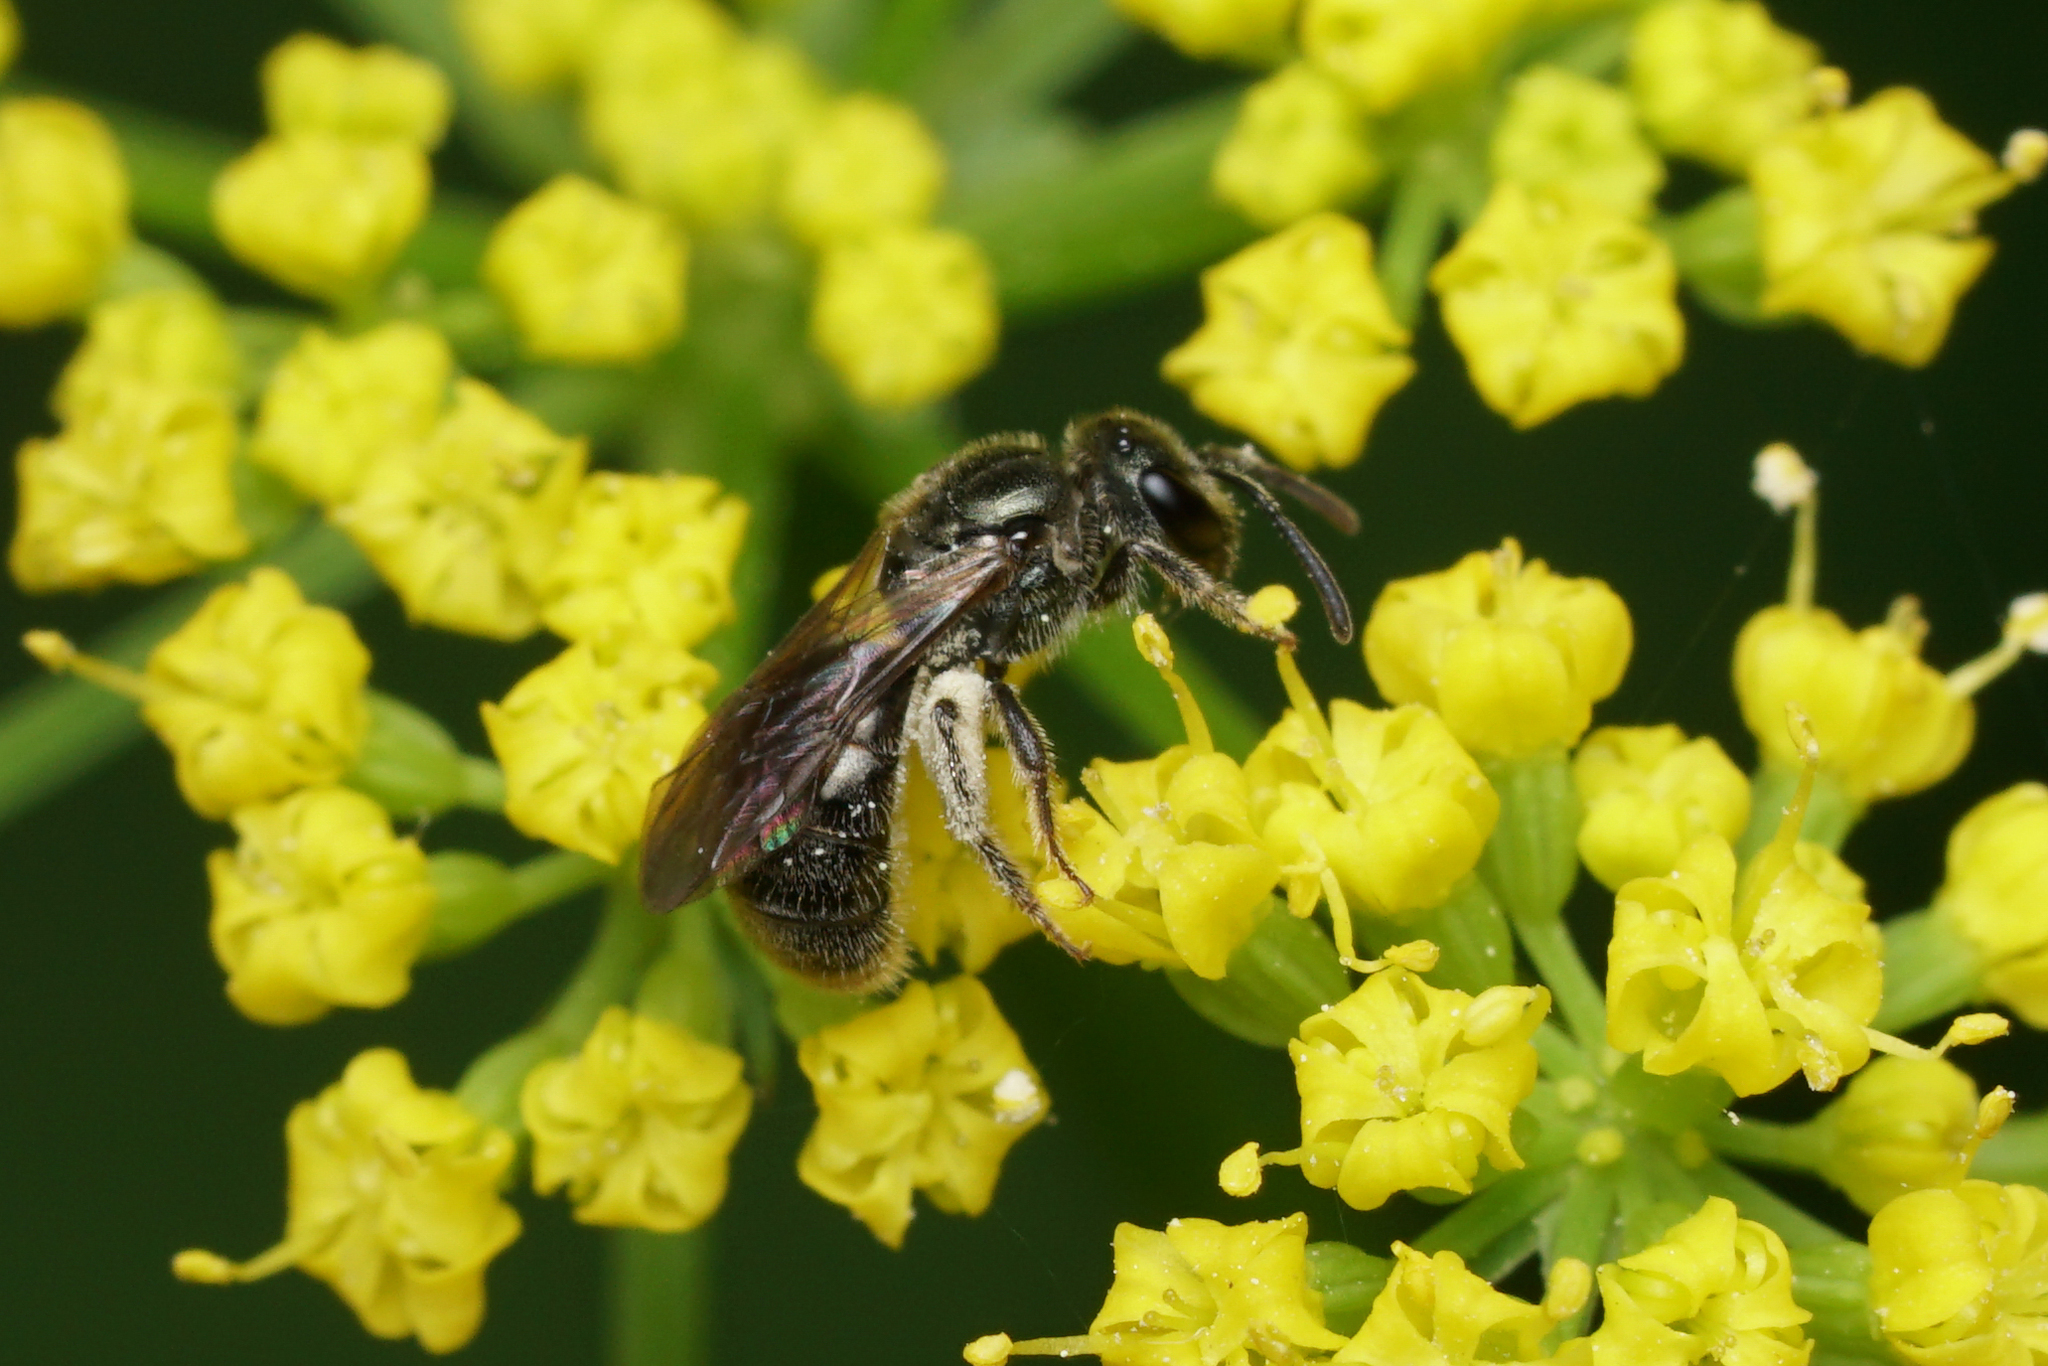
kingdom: Animalia
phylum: Arthropoda
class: Insecta
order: Hymenoptera
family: Halictidae
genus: Dialictus
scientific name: Dialictus
